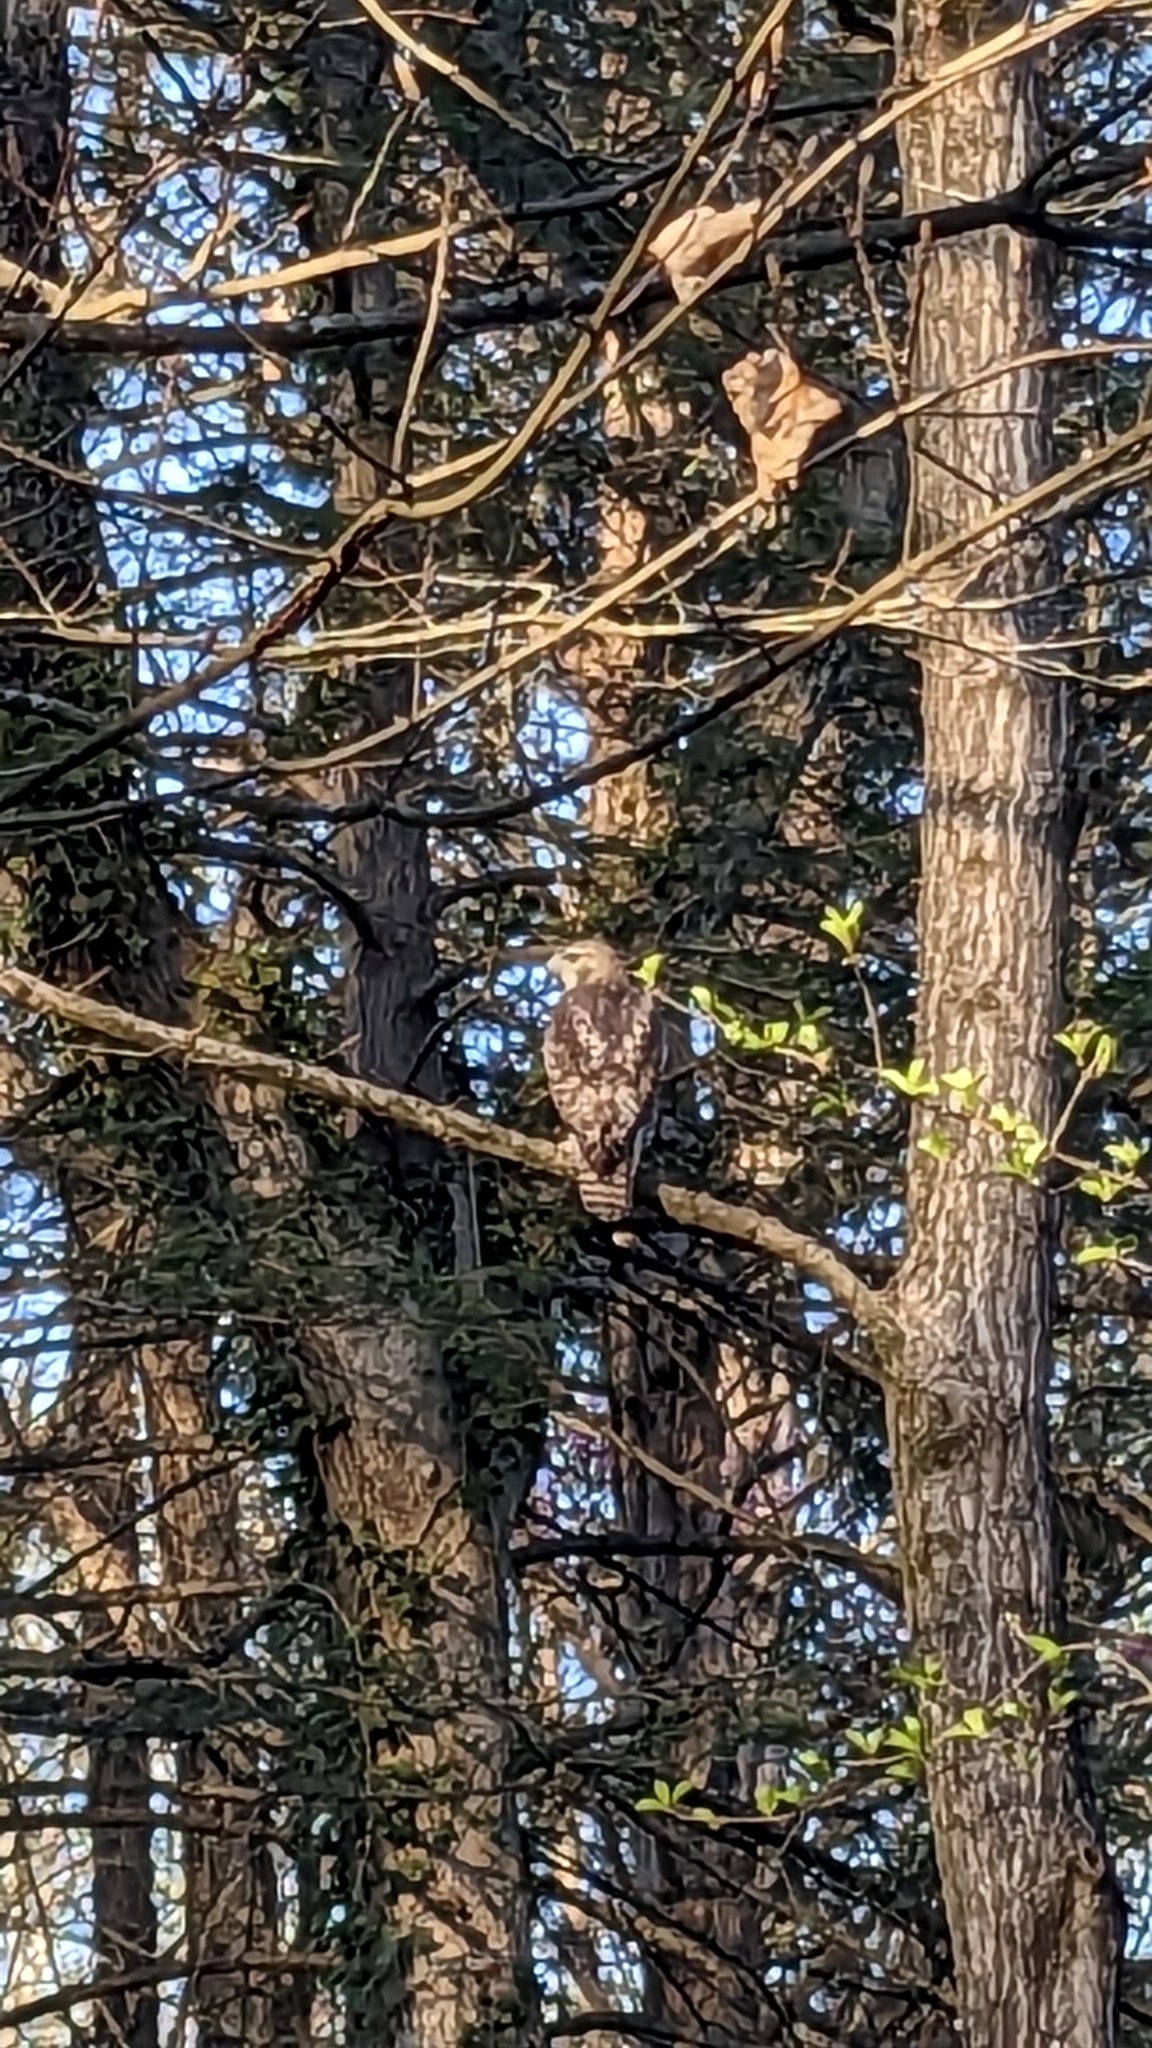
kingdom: Animalia
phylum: Chordata
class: Aves
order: Accipitriformes
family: Accipitridae
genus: Buteo
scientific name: Buteo jamaicensis
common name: Red-tailed hawk
